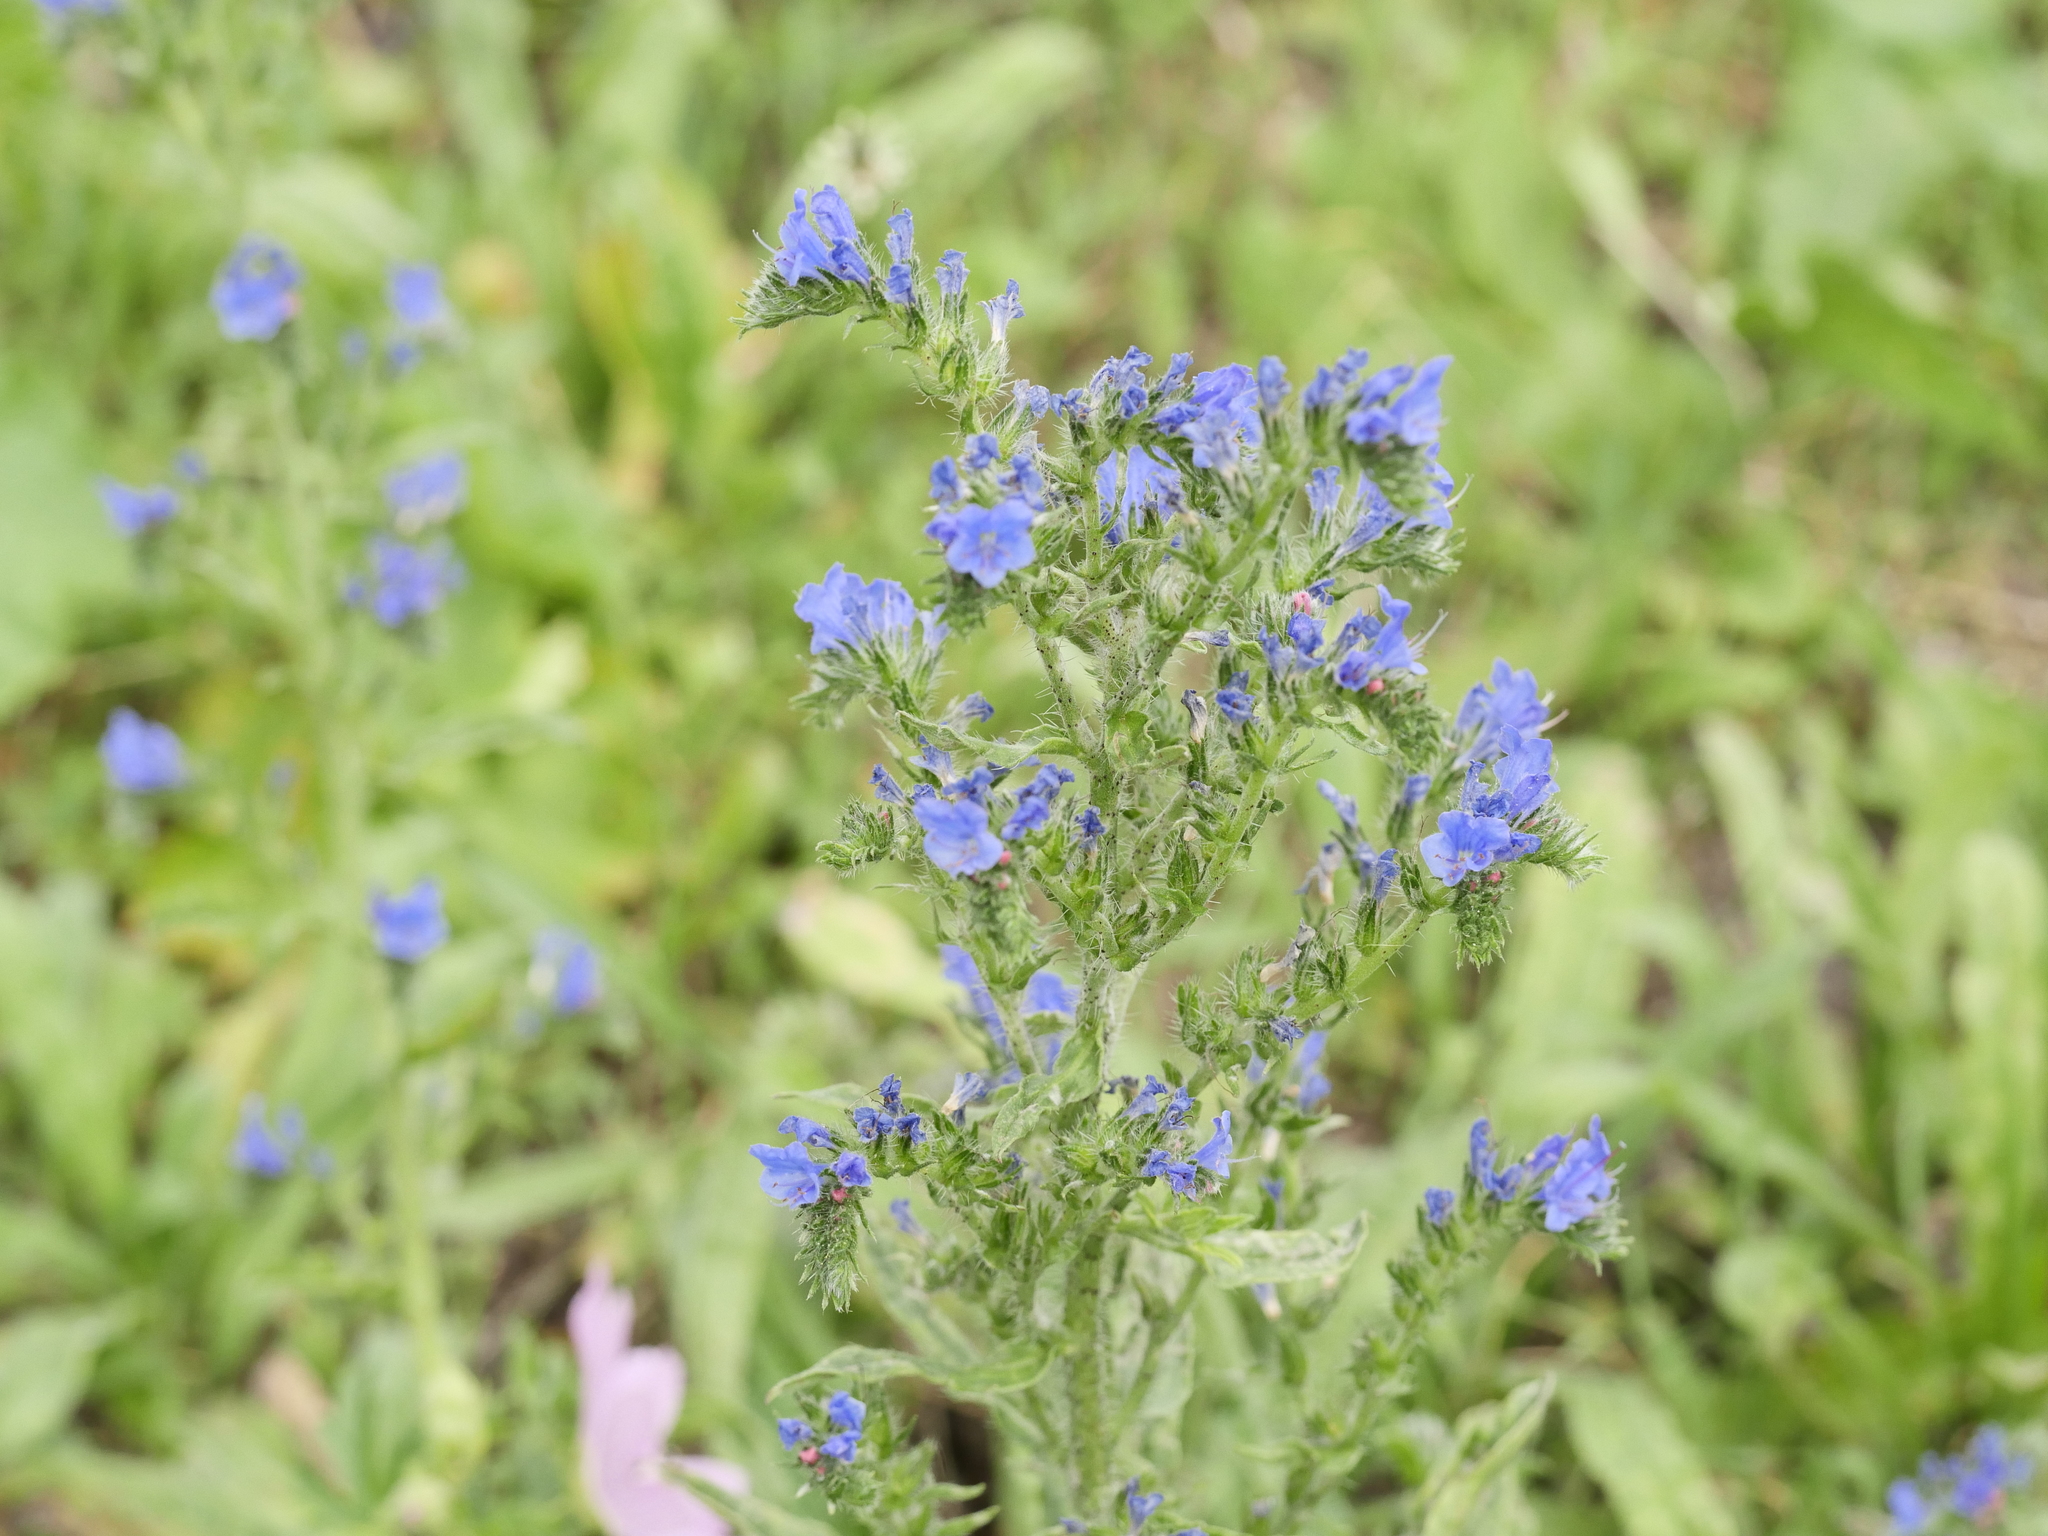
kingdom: Plantae
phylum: Tracheophyta
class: Magnoliopsida
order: Boraginales
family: Boraginaceae
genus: Echium
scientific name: Echium vulgare
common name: Common viper's bugloss
